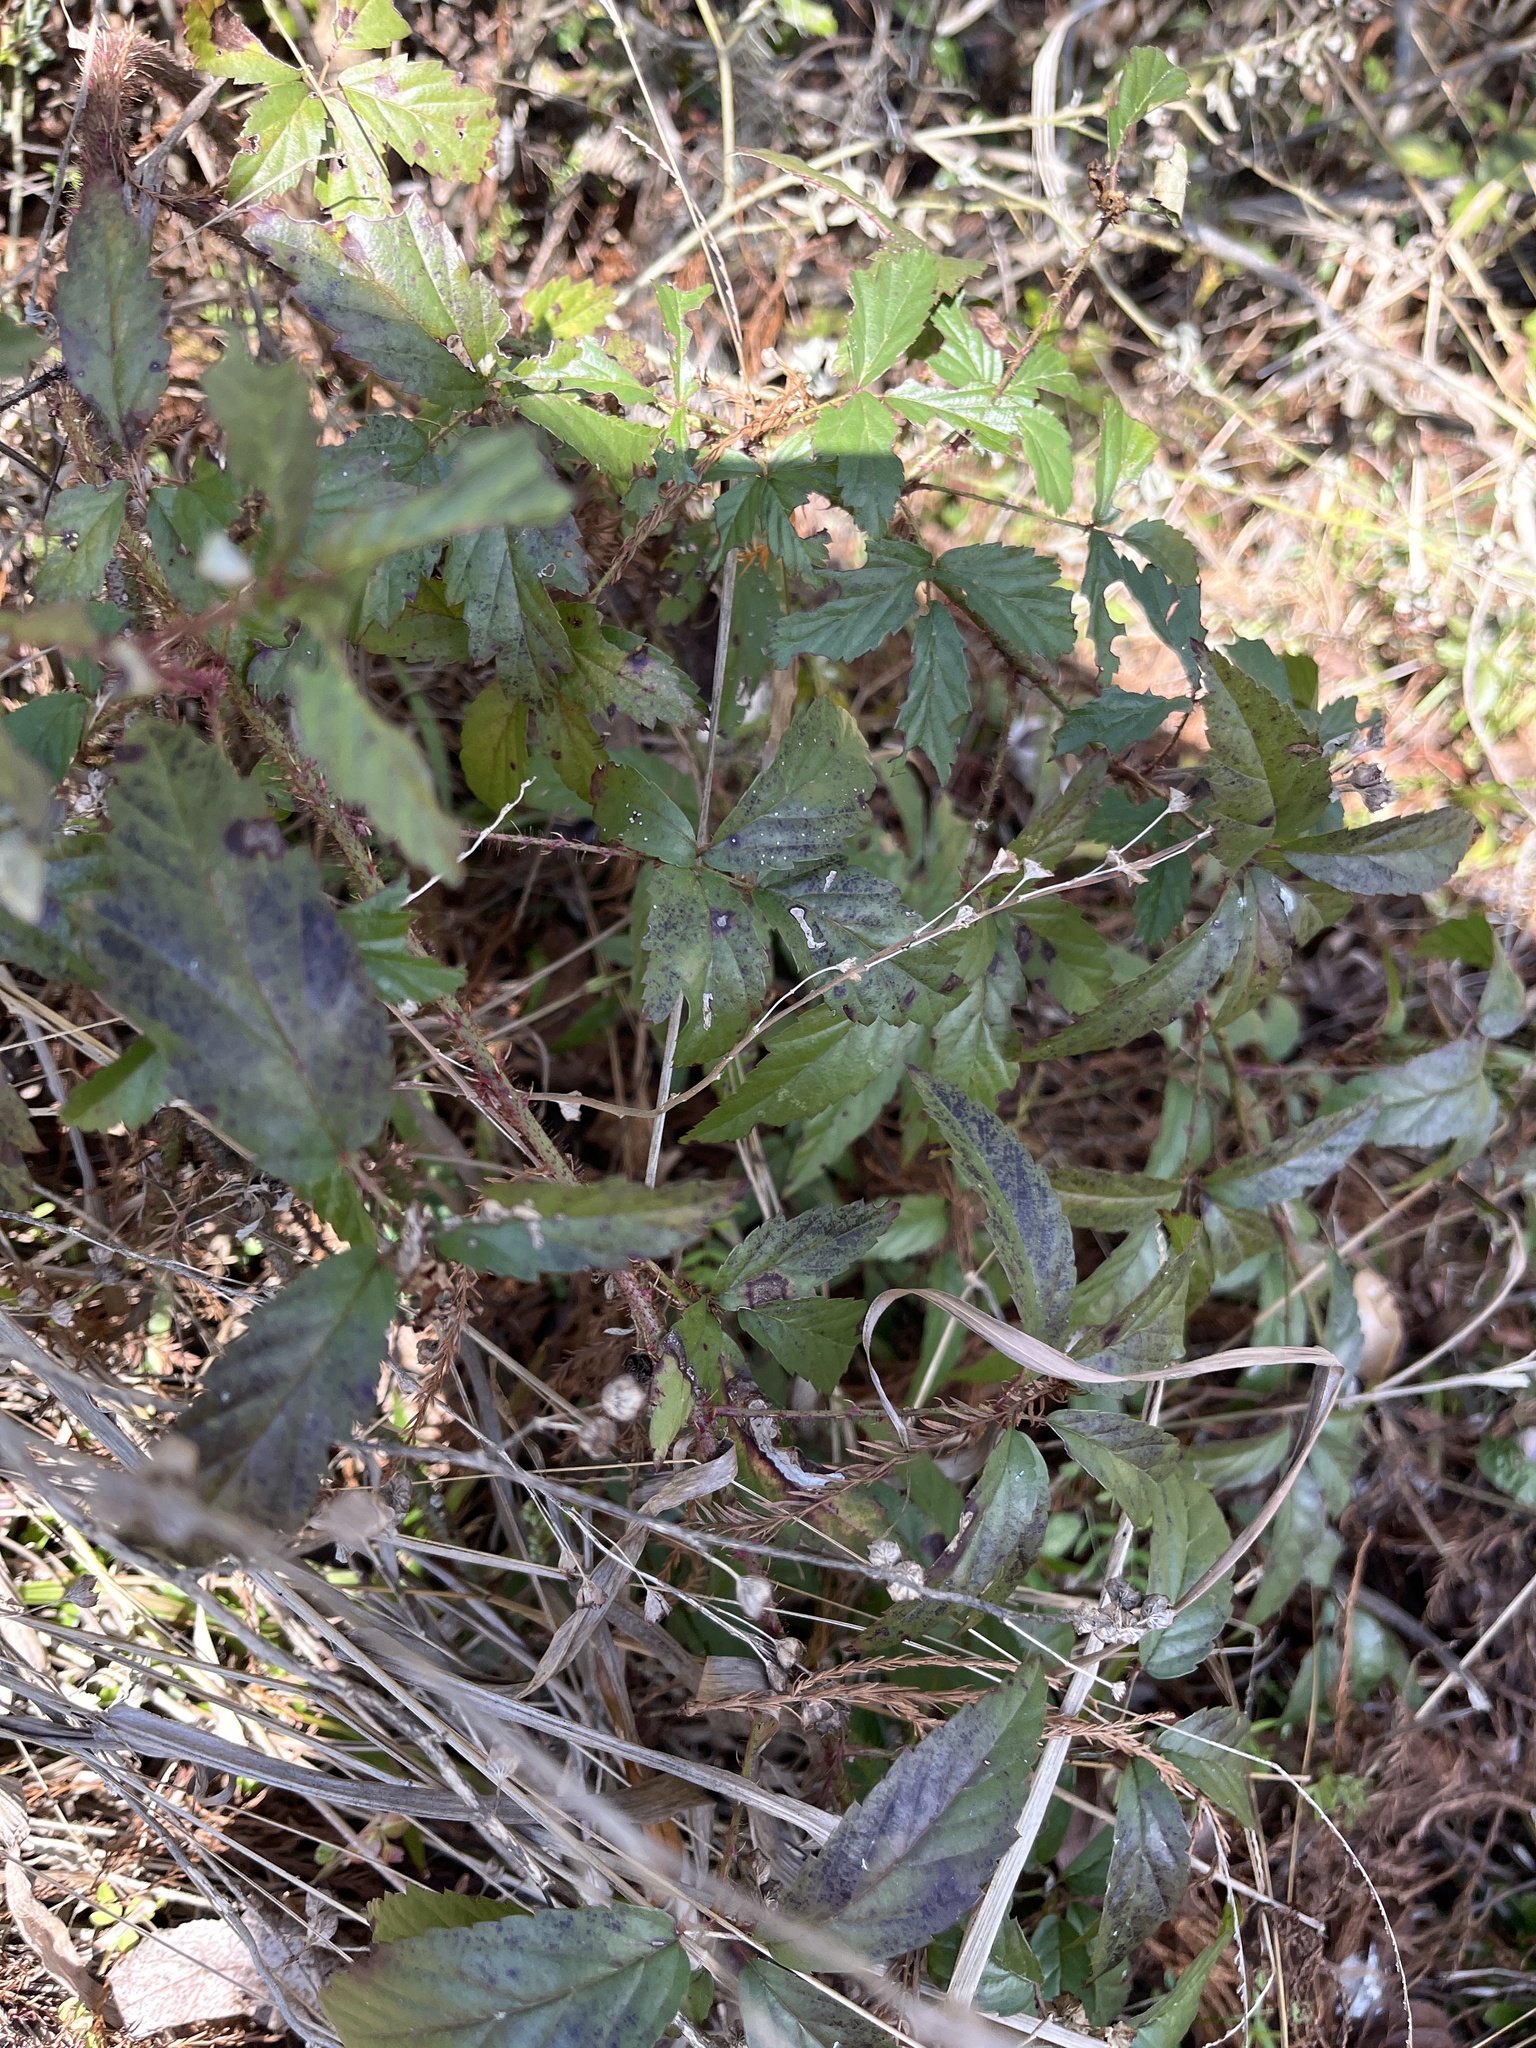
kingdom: Plantae
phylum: Tracheophyta
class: Magnoliopsida
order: Rosales
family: Rosaceae
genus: Rubus
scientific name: Rubus trivialis
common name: Southern dewberry
